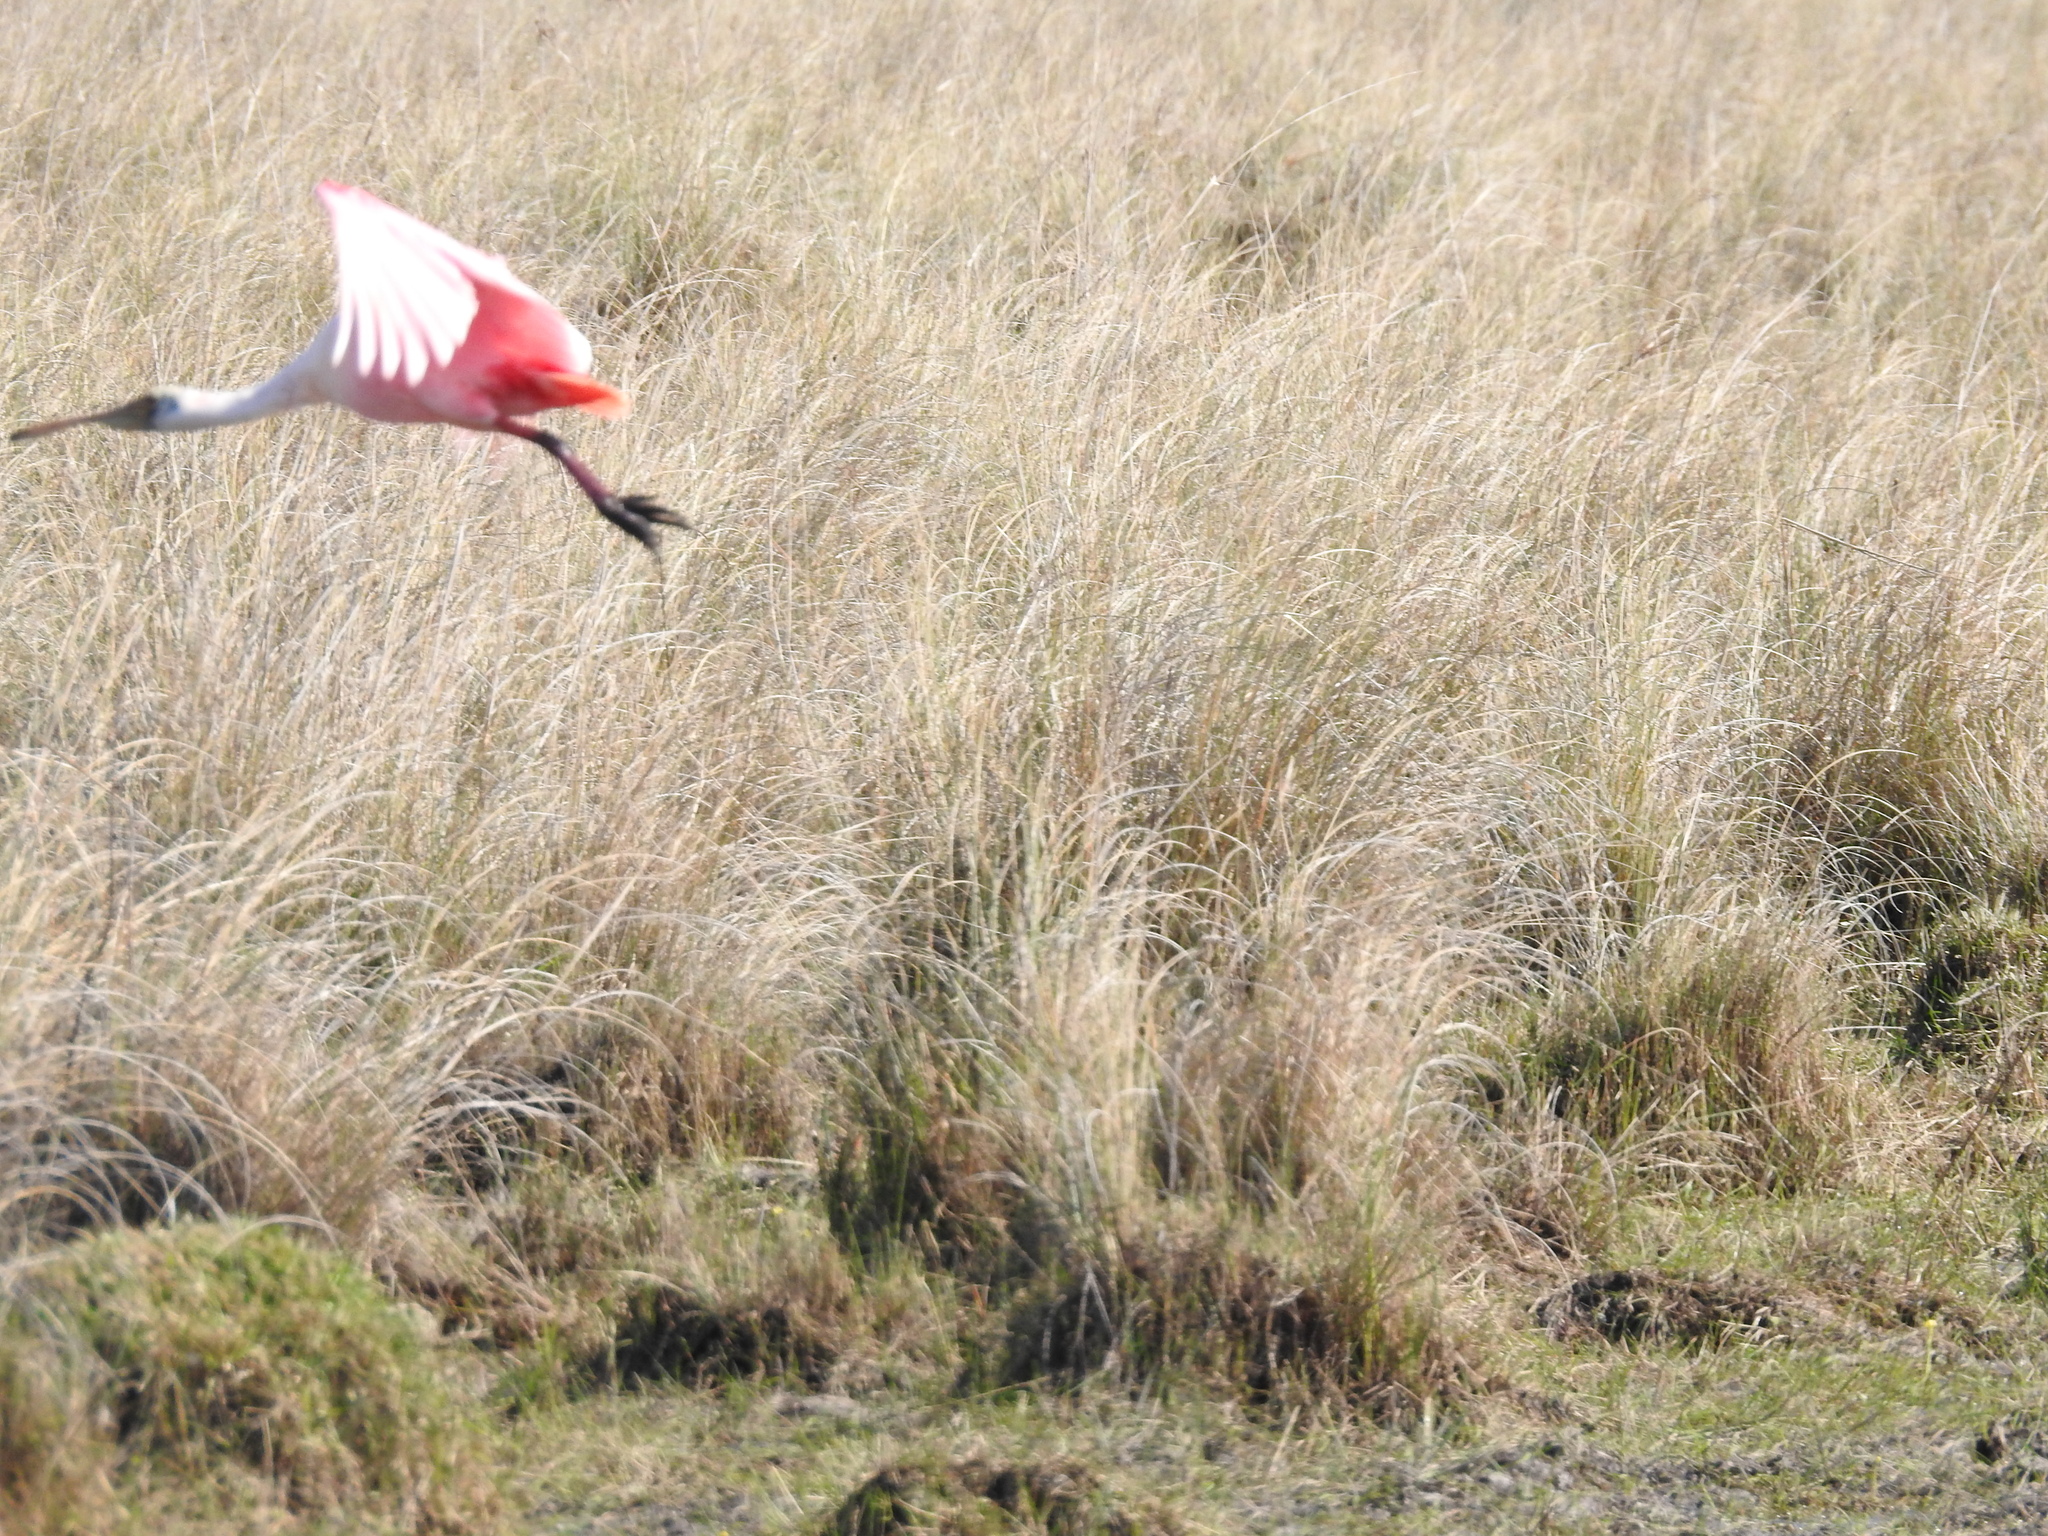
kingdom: Animalia
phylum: Chordata
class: Aves
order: Pelecaniformes
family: Threskiornithidae
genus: Platalea
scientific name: Platalea ajaja
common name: Roseate spoonbill
